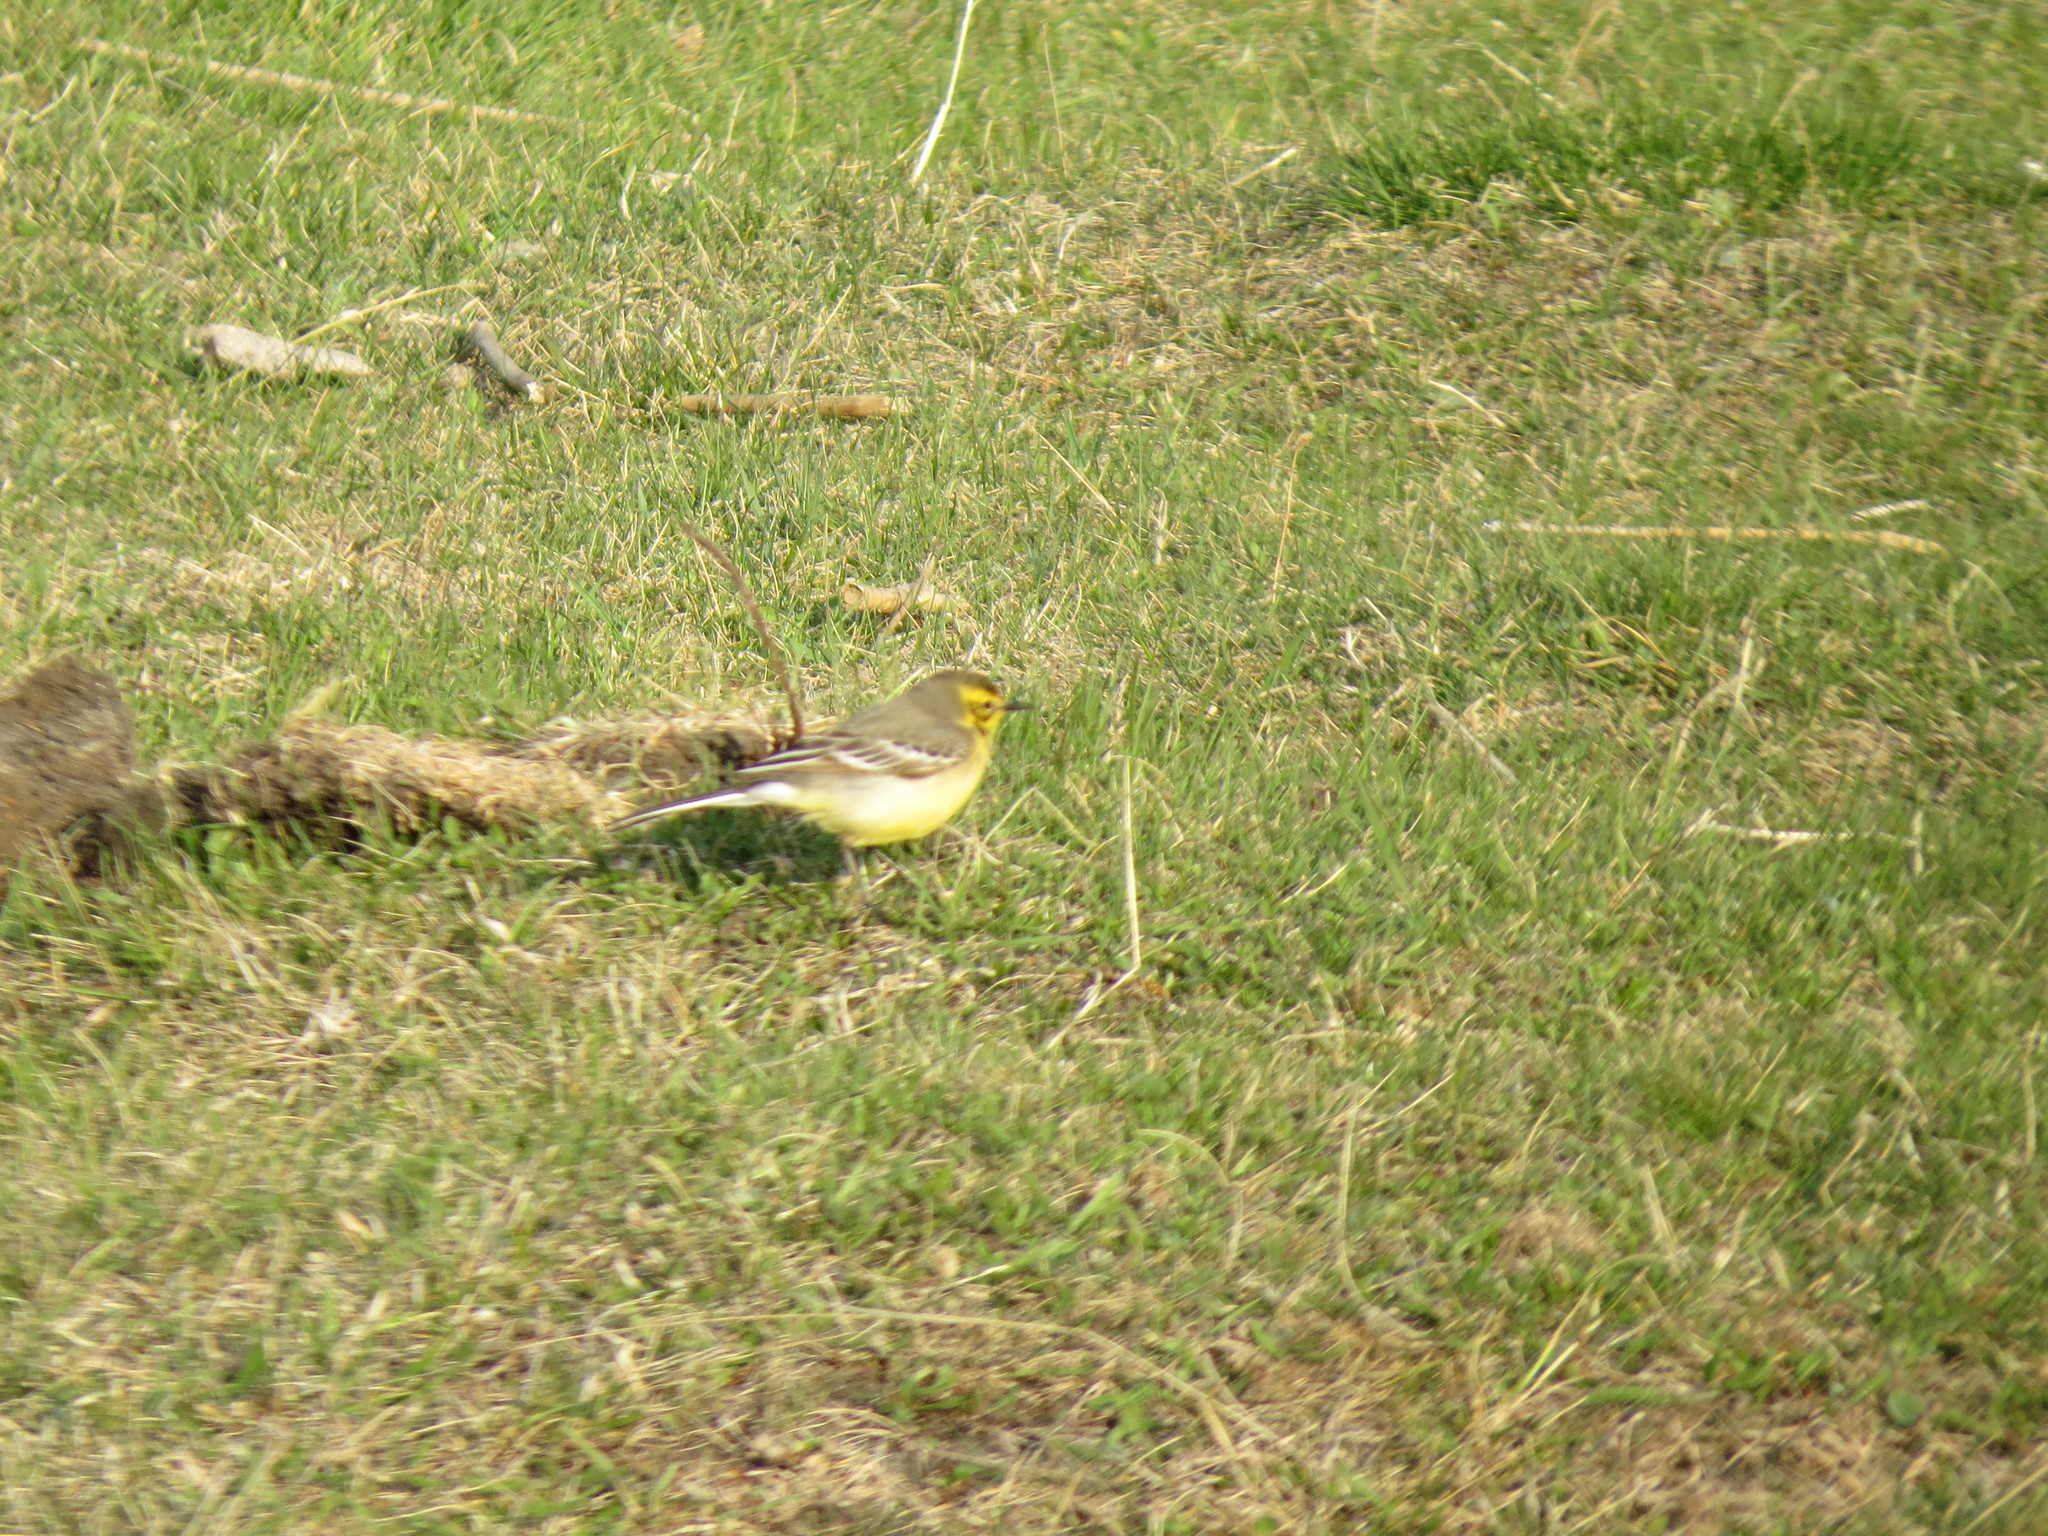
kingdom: Animalia
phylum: Chordata
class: Aves
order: Passeriformes
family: Motacillidae
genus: Motacilla
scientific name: Motacilla citreola
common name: Citrine wagtail
